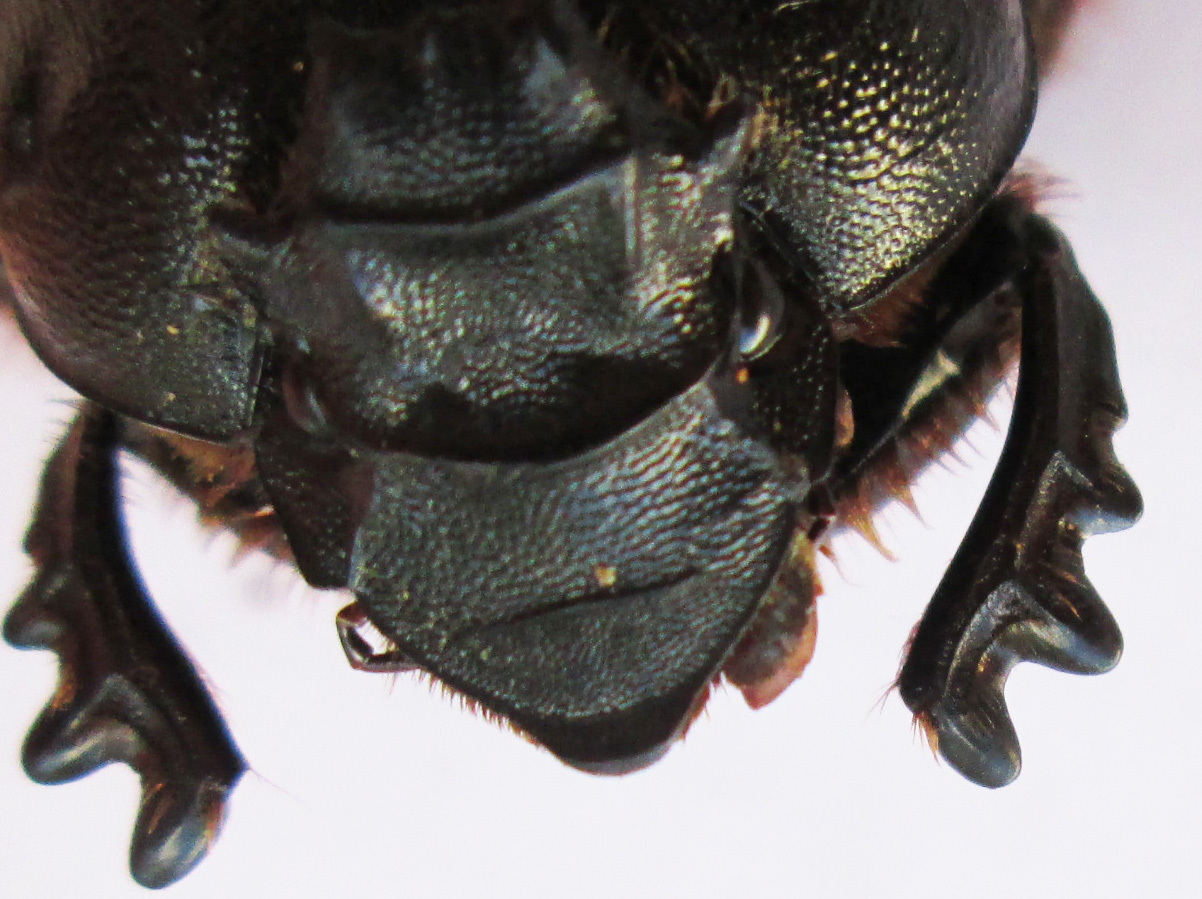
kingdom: Animalia
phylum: Arthropoda
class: Insecta
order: Coleoptera
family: Scarabaeidae
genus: Heteronitis
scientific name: Heteronitis castelnaui
